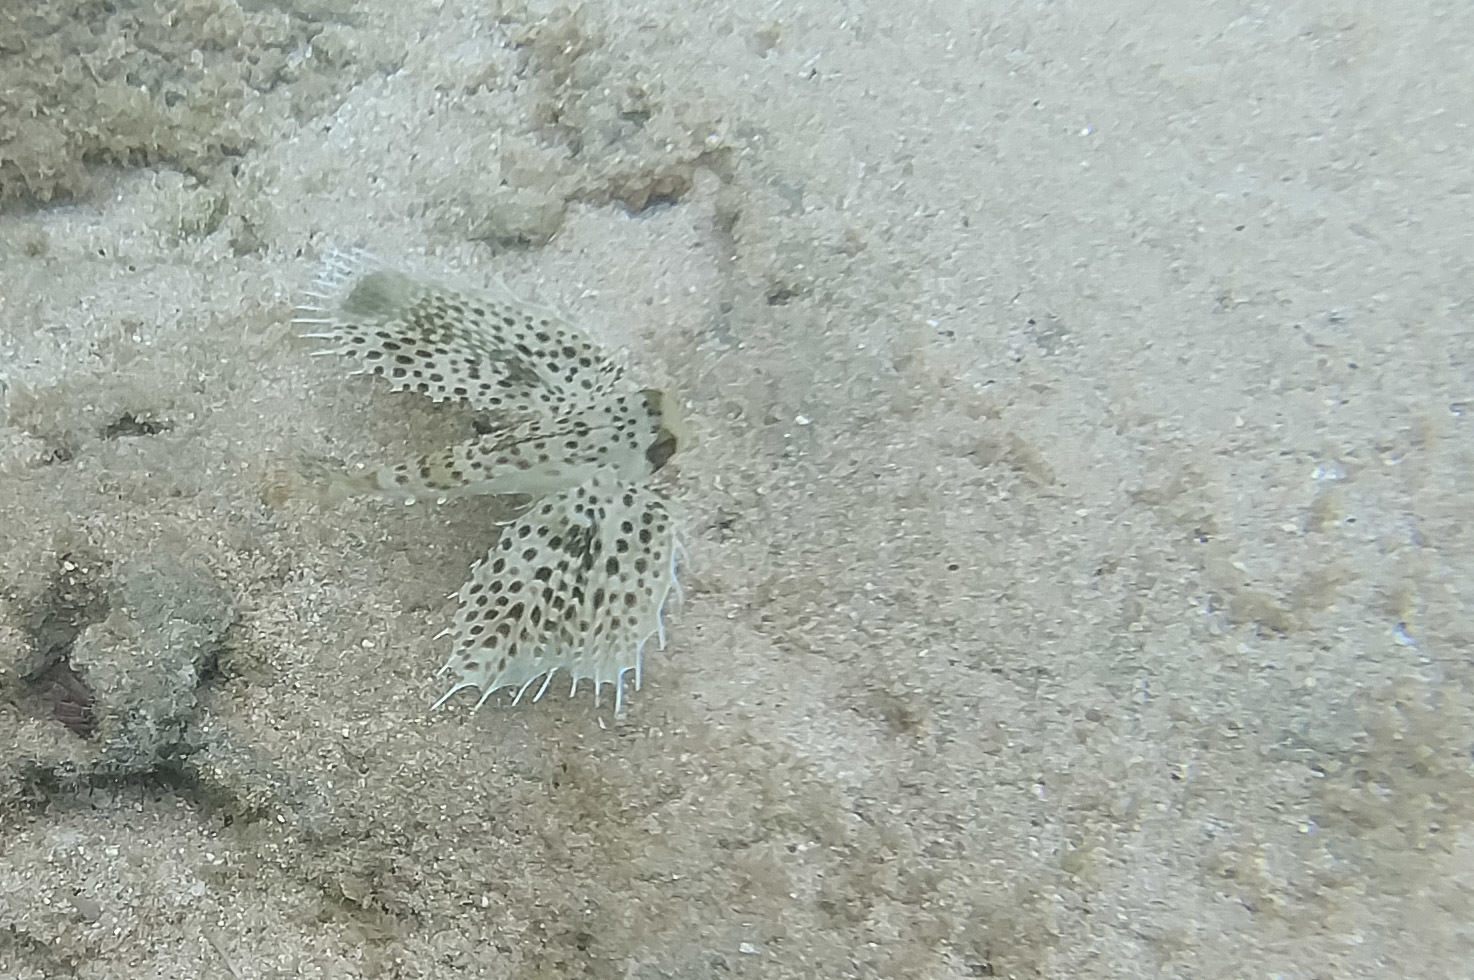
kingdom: Animalia
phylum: Chordata
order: Scorpaeniformes
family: Dactylopteridae
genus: Dactyloptena
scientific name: Dactyloptena orientalis
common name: Flying gurnard
